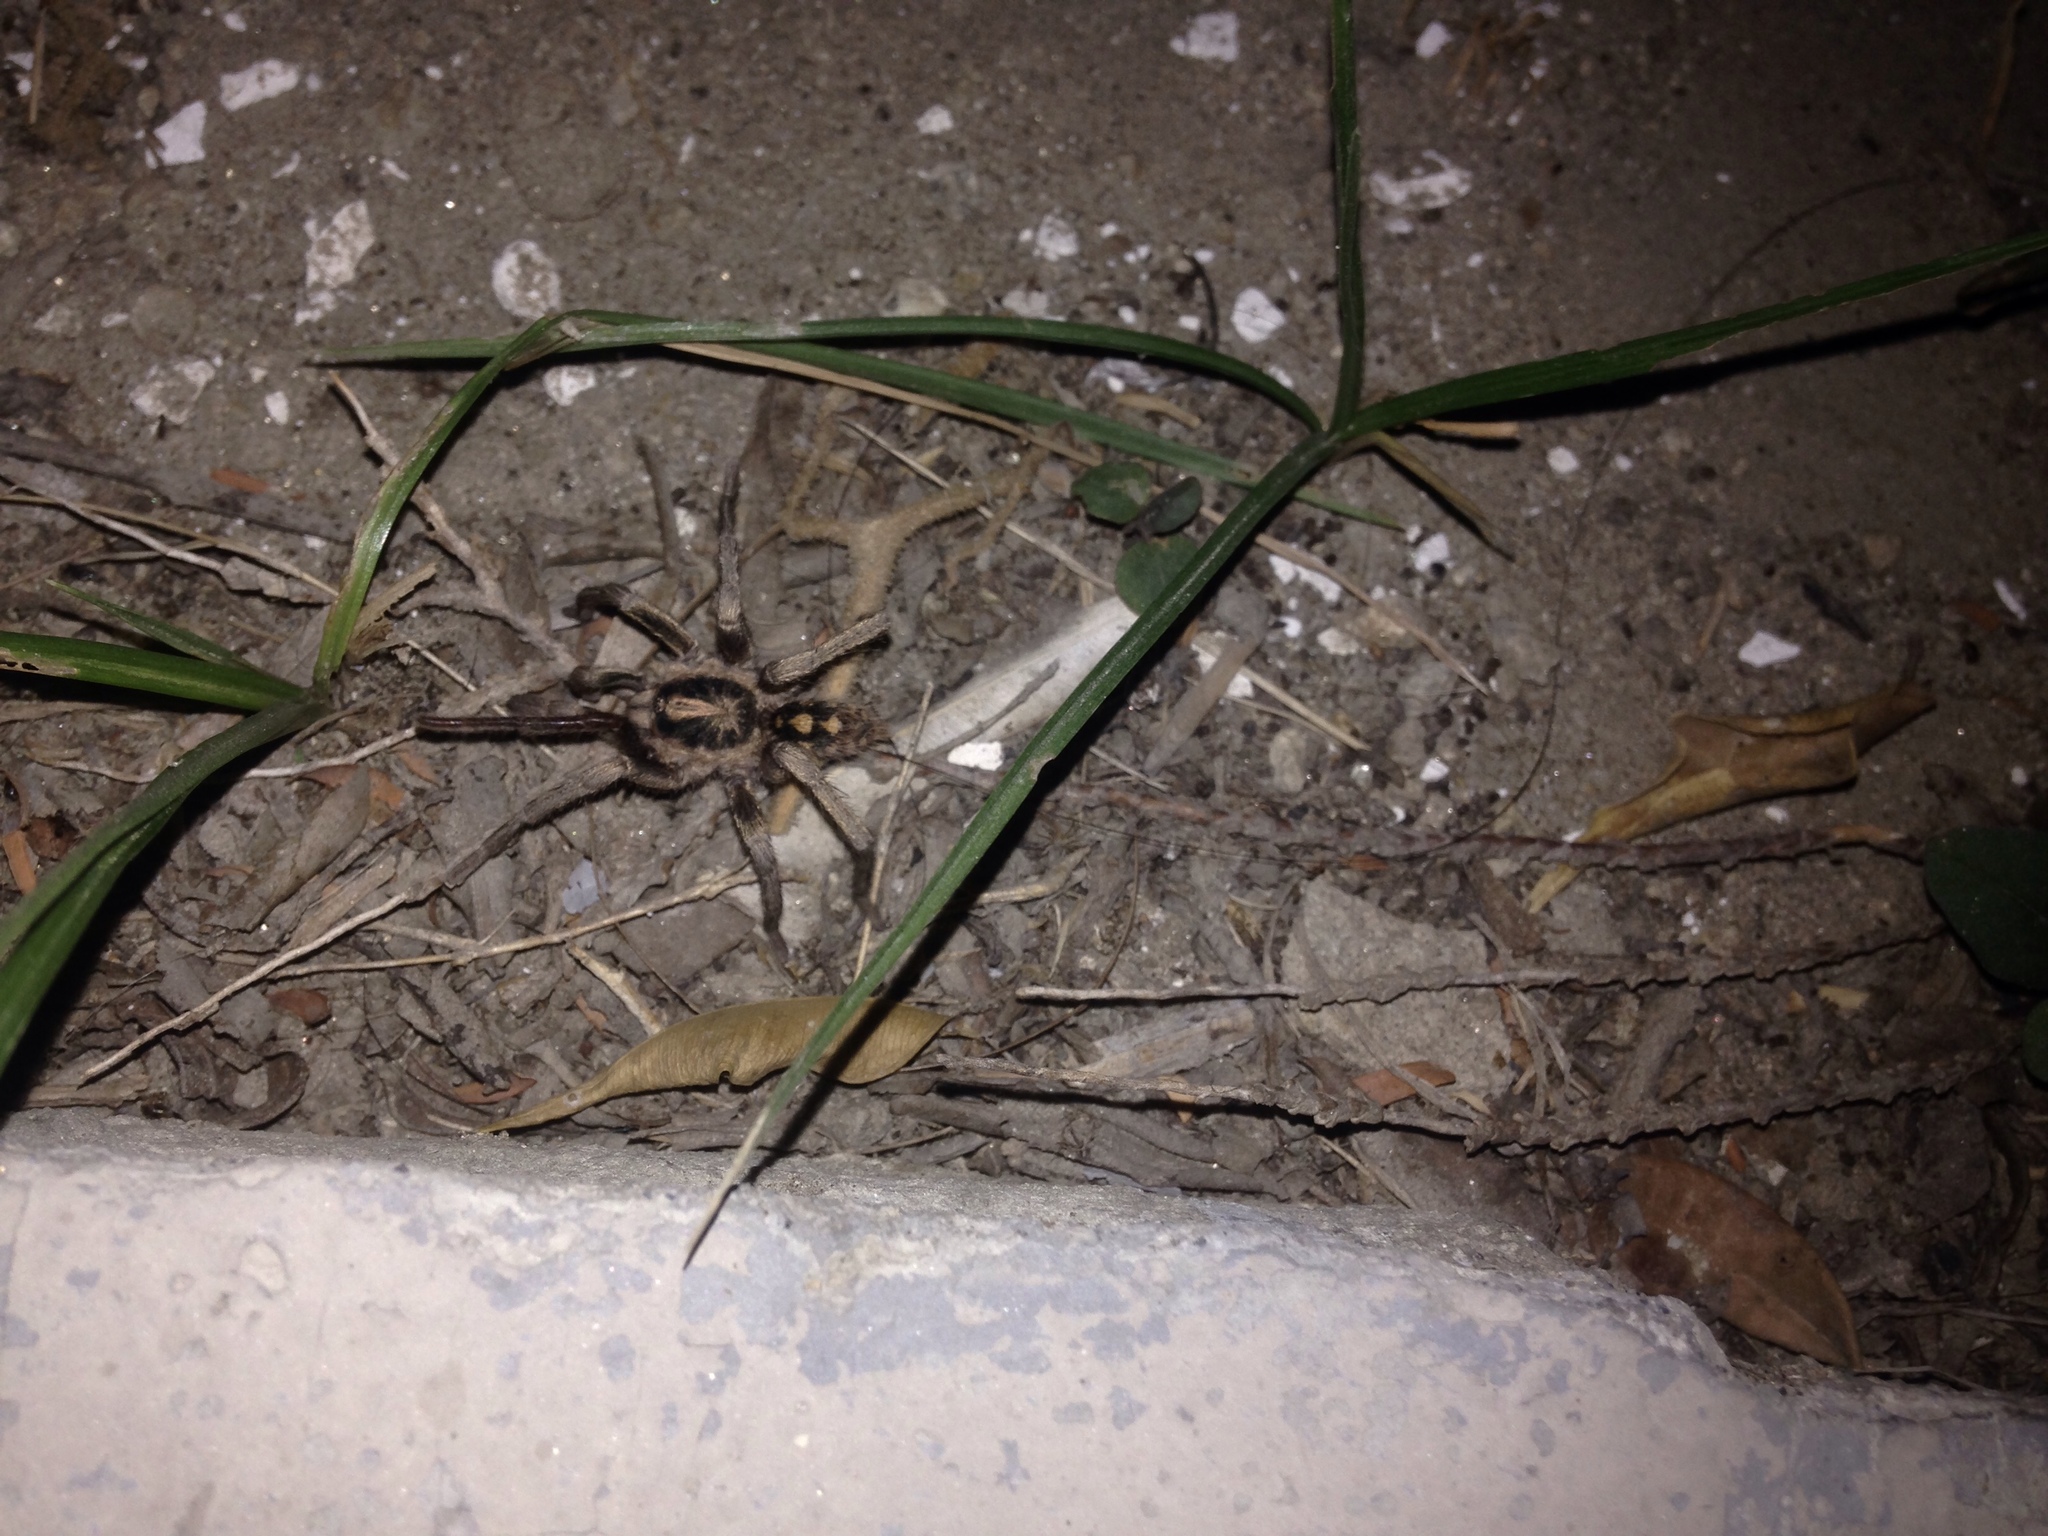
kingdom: Animalia
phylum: Arthropoda
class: Arachnida
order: Araneae
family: Theraphosidae
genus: Hapalopus
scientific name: Hapalopus formosus
